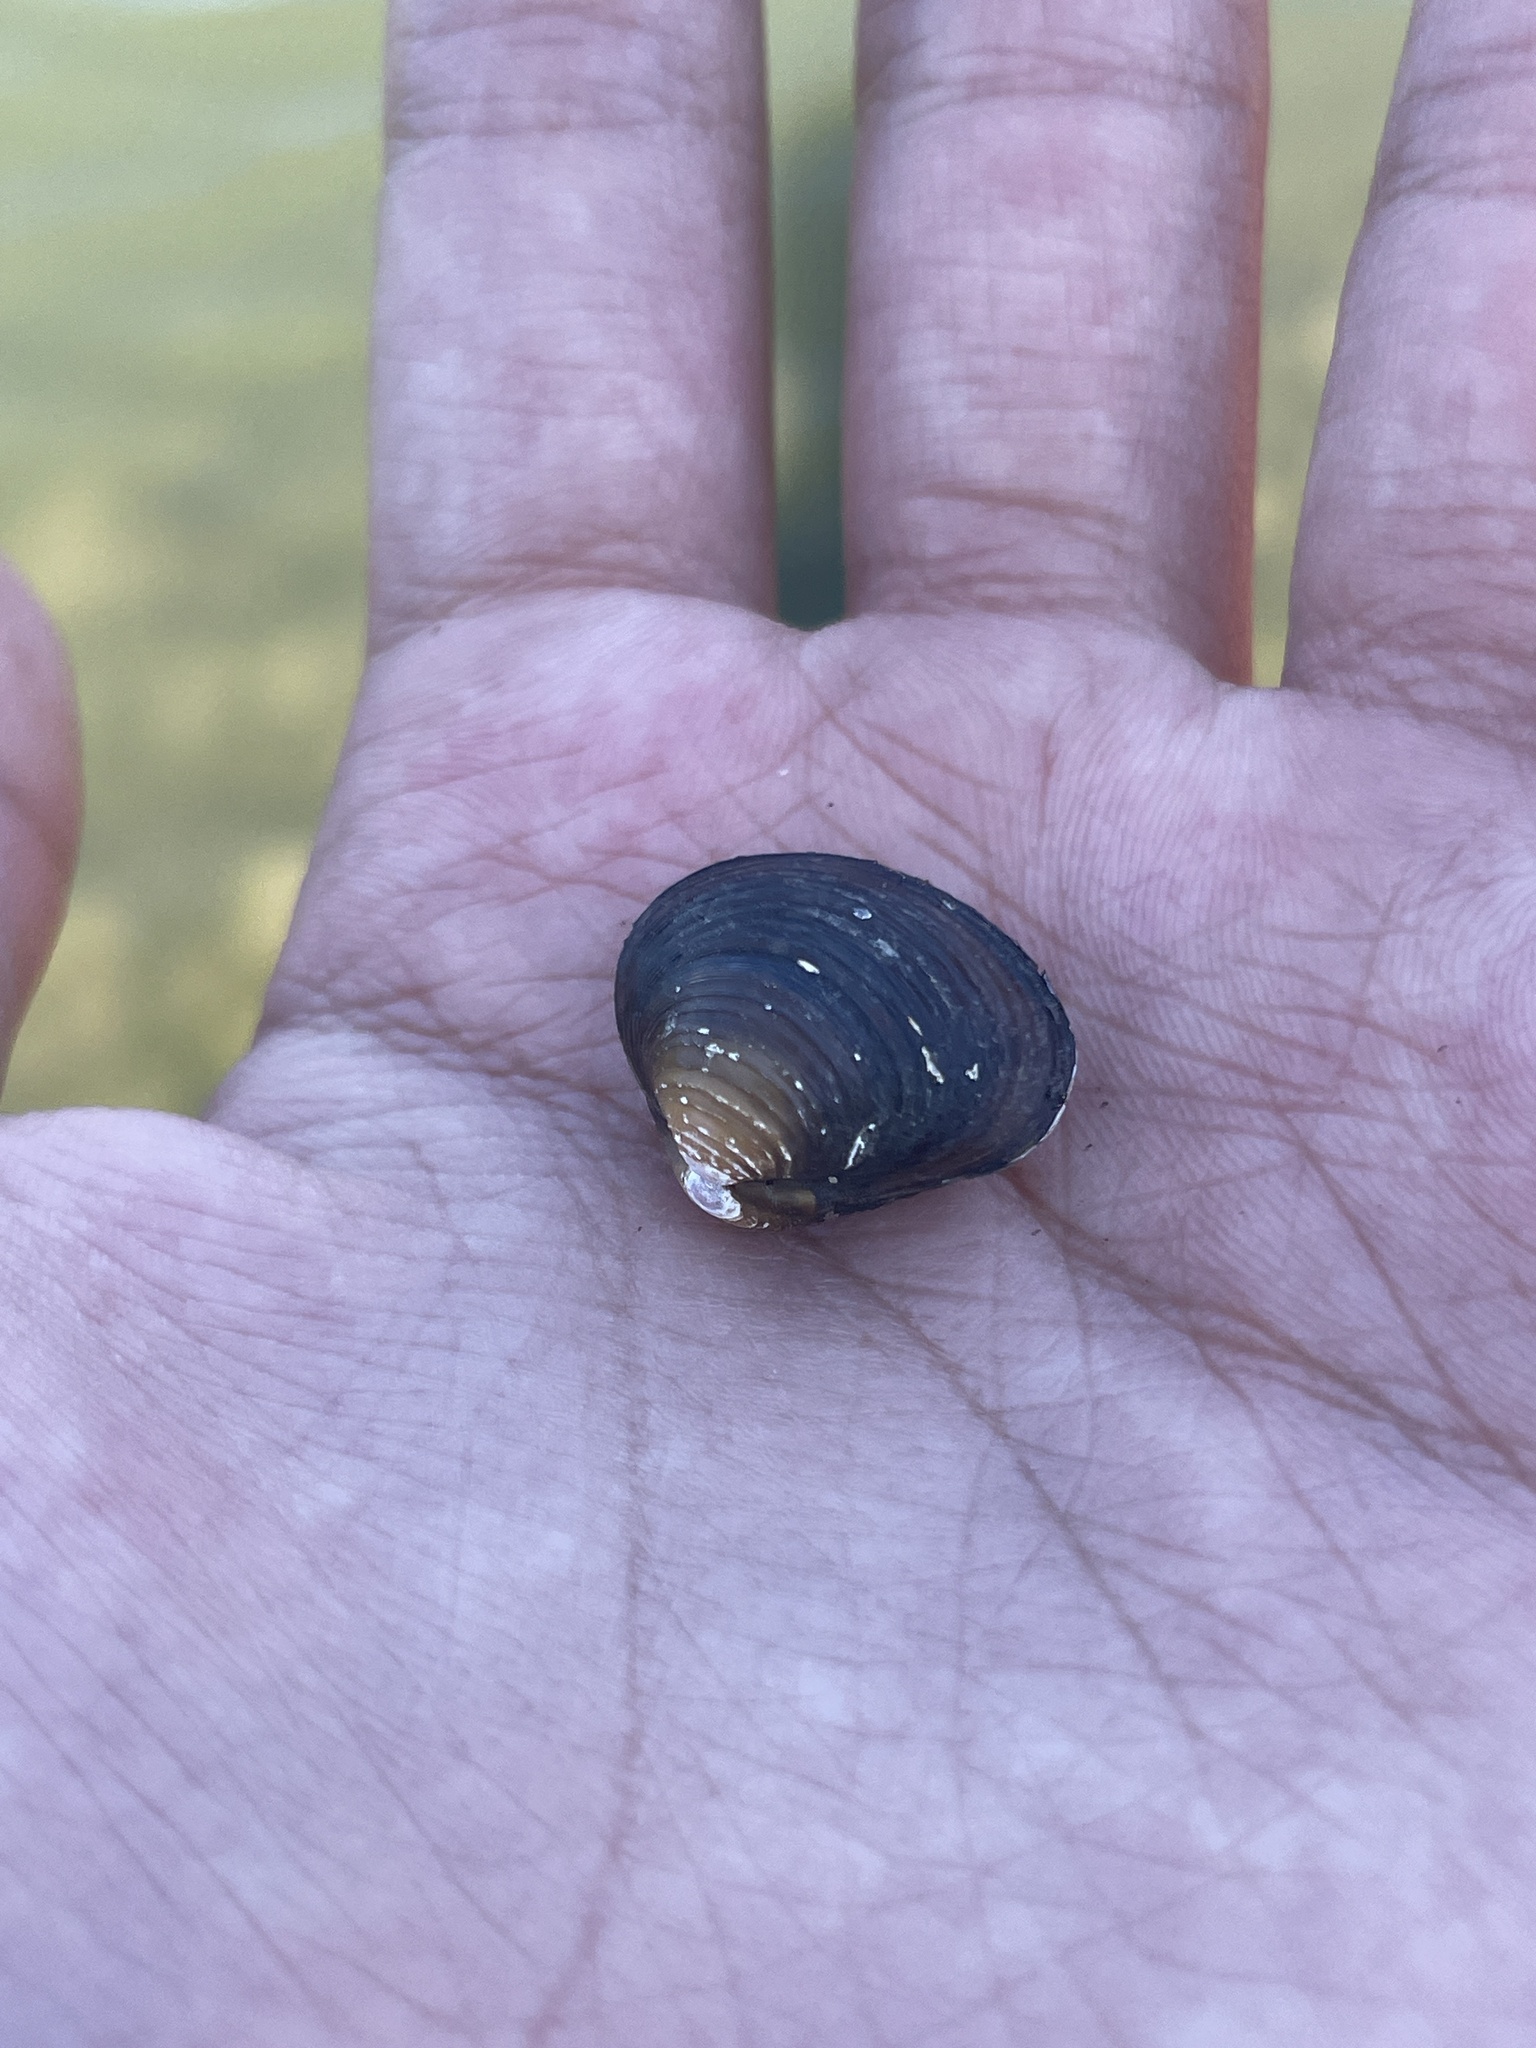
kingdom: Animalia
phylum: Mollusca
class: Bivalvia
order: Venerida
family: Cyrenidae
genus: Corbicula
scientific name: Corbicula fluminea
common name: Asian clam
